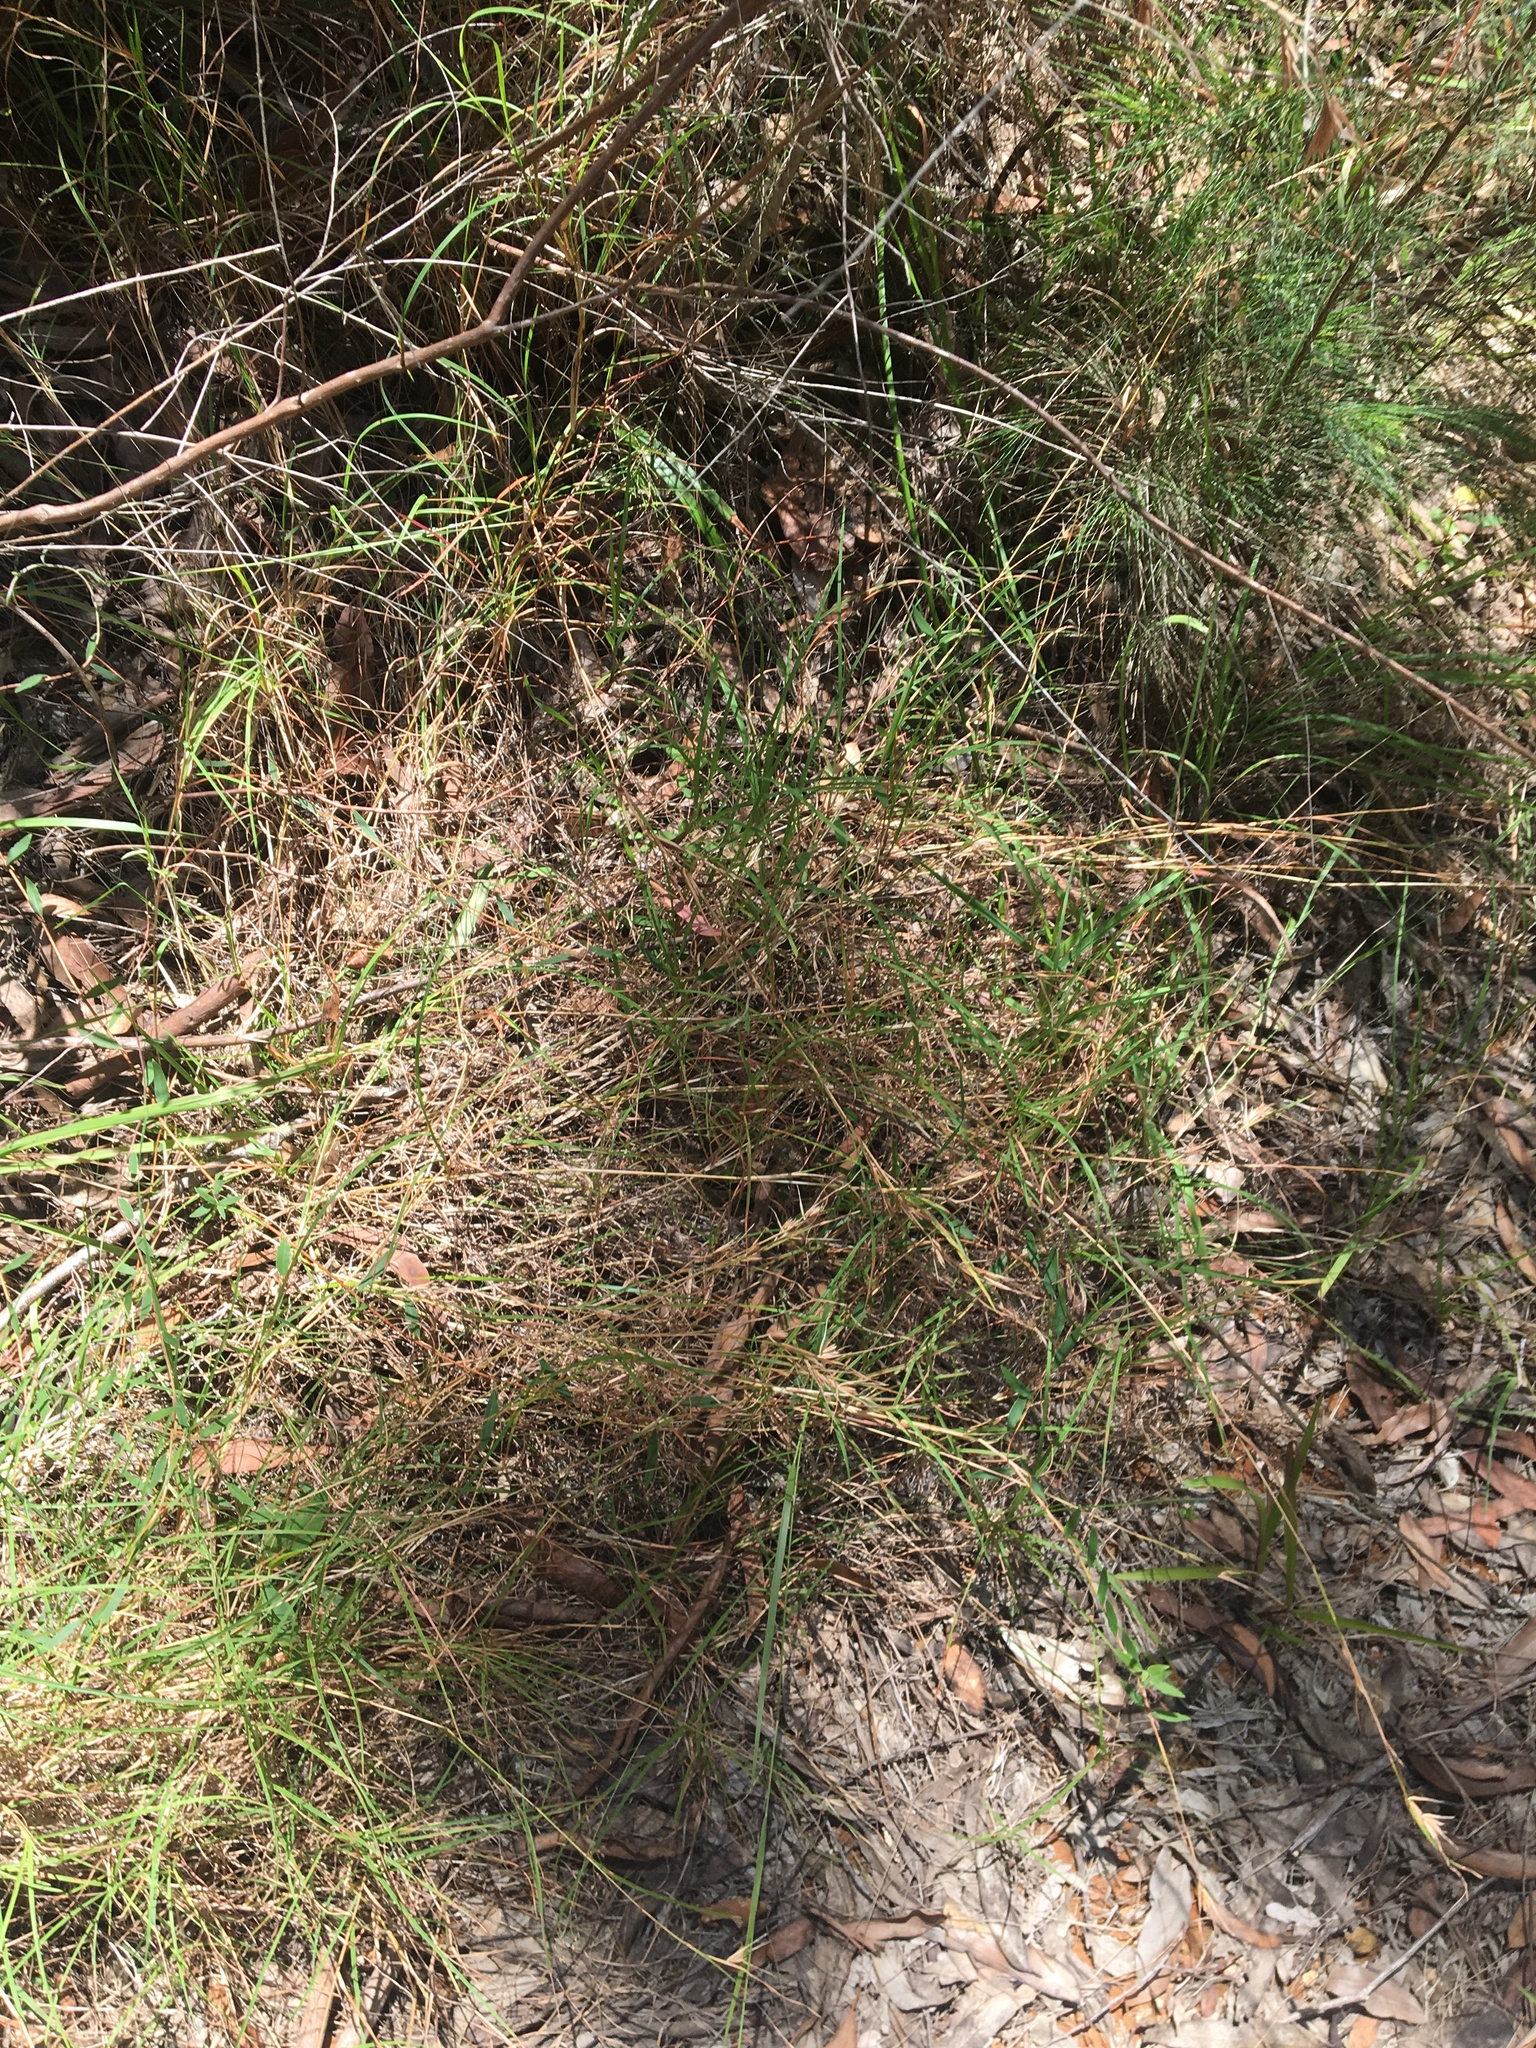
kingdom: Plantae
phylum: Tracheophyta
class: Liliopsida
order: Poales
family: Poaceae
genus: Themeda
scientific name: Themeda triandra
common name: Kangaroo grass
